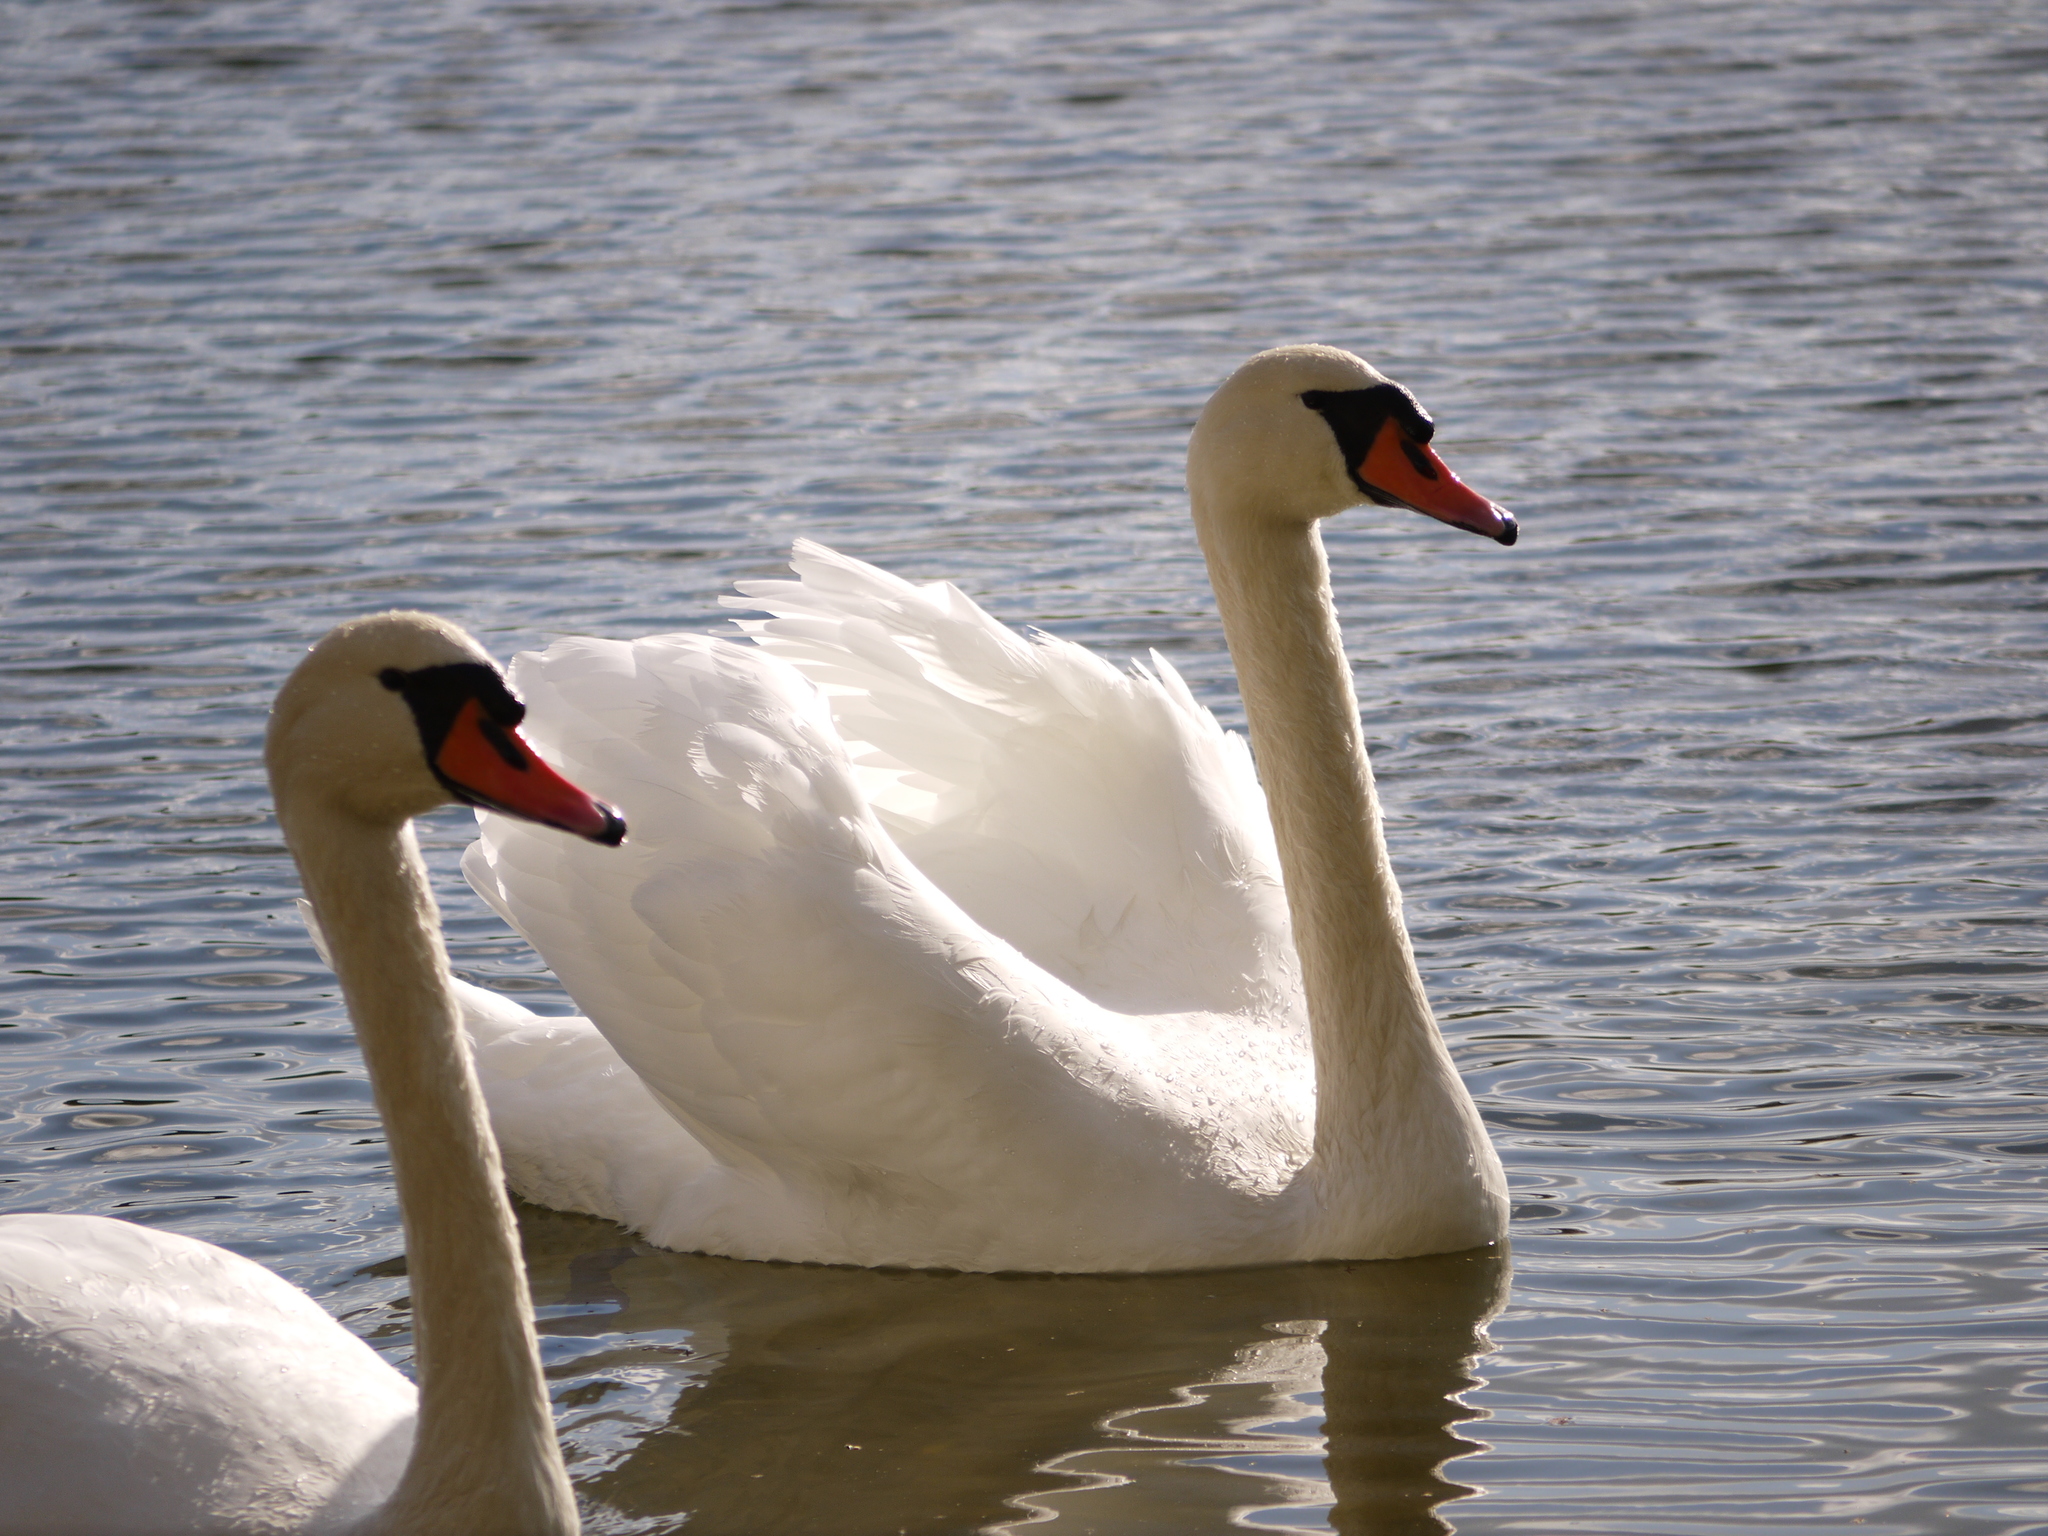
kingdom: Animalia
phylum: Chordata
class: Aves
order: Anseriformes
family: Anatidae
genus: Cygnus
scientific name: Cygnus olor
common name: Mute swan
